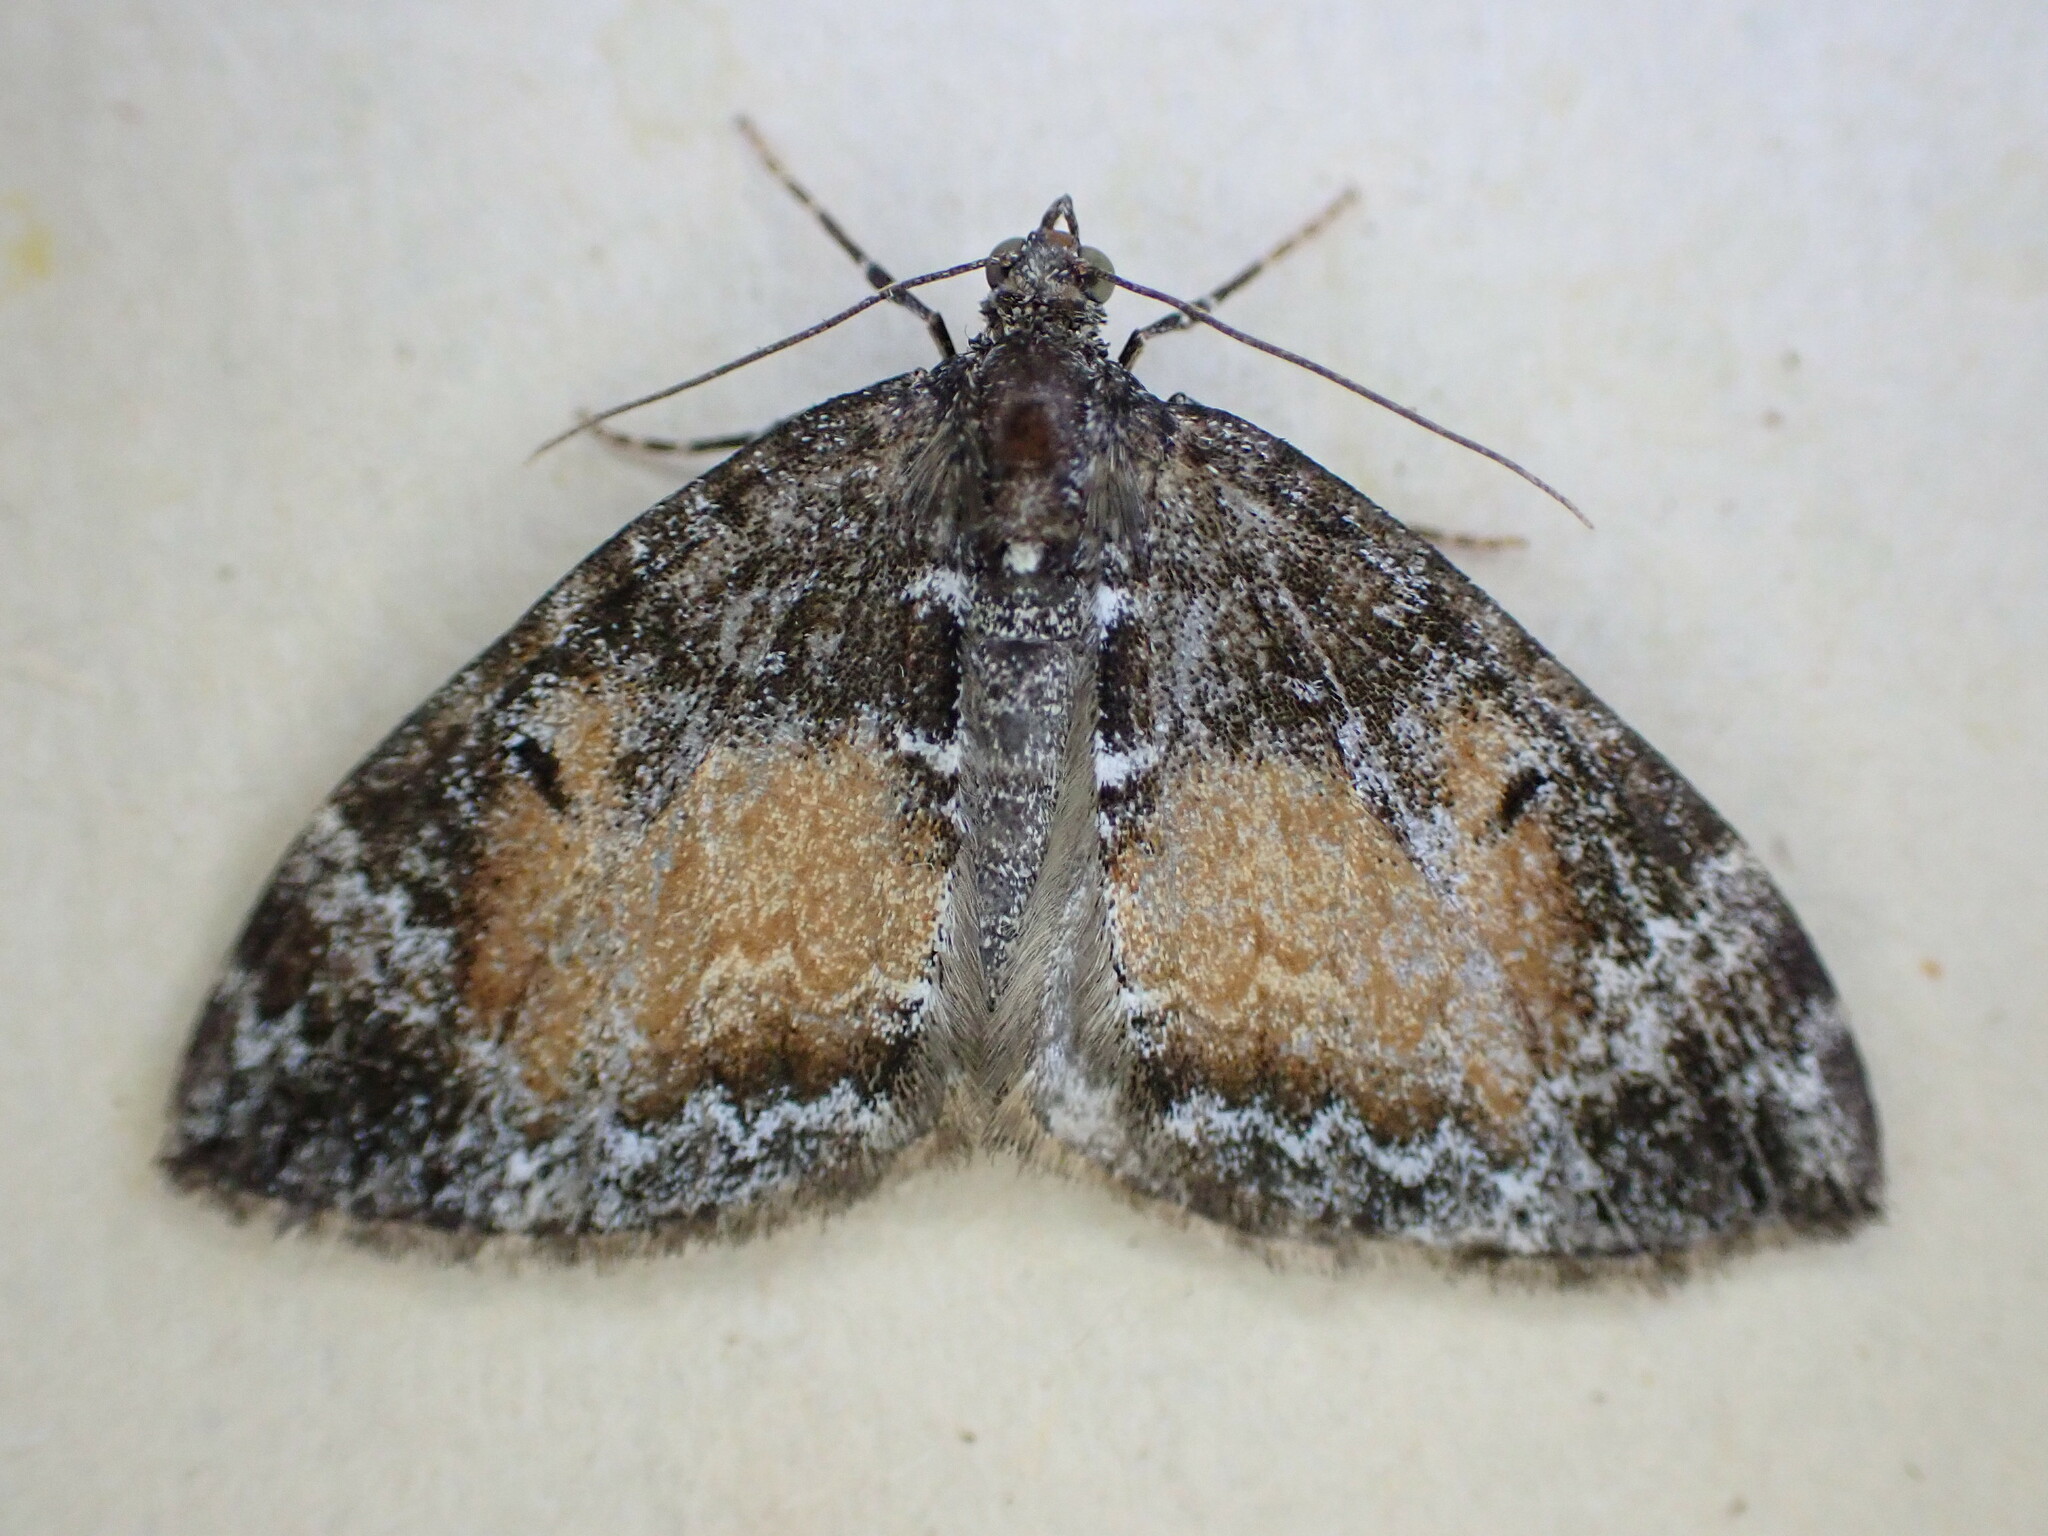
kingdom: Animalia
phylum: Arthropoda
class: Insecta
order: Lepidoptera
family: Geometridae
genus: Dysstroma
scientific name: Dysstroma truncata
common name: Common marbled carpet
